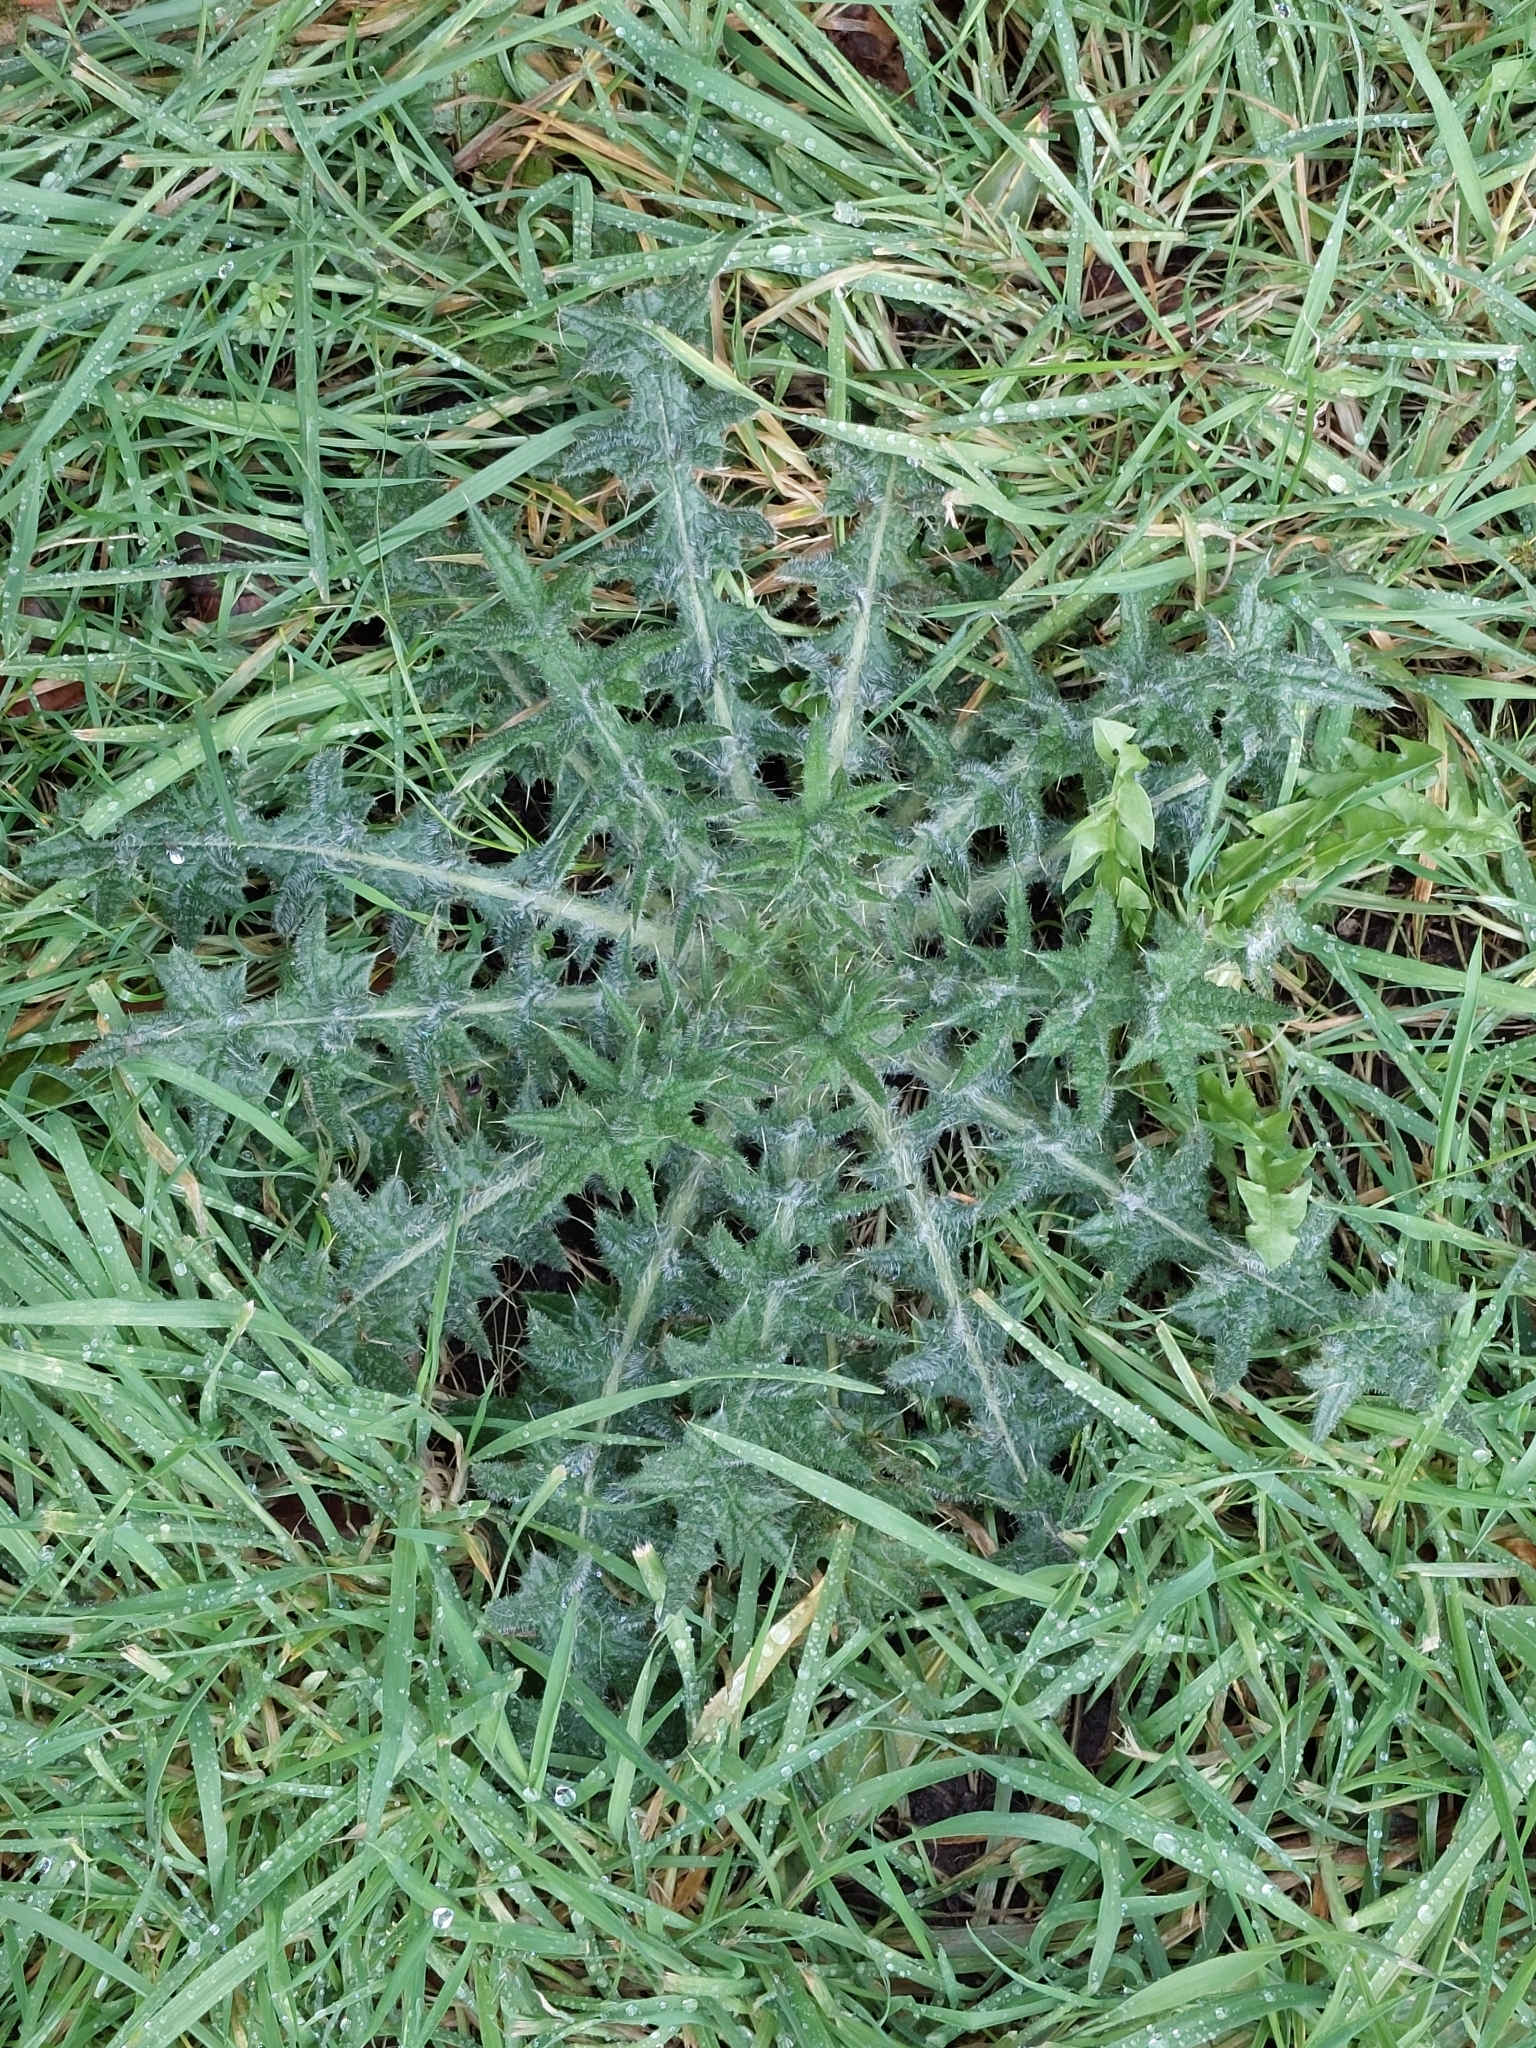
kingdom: Plantae
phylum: Tracheophyta
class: Magnoliopsida
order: Asterales
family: Asteraceae
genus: Cirsium
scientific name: Cirsium vulgare
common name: Bull thistle
